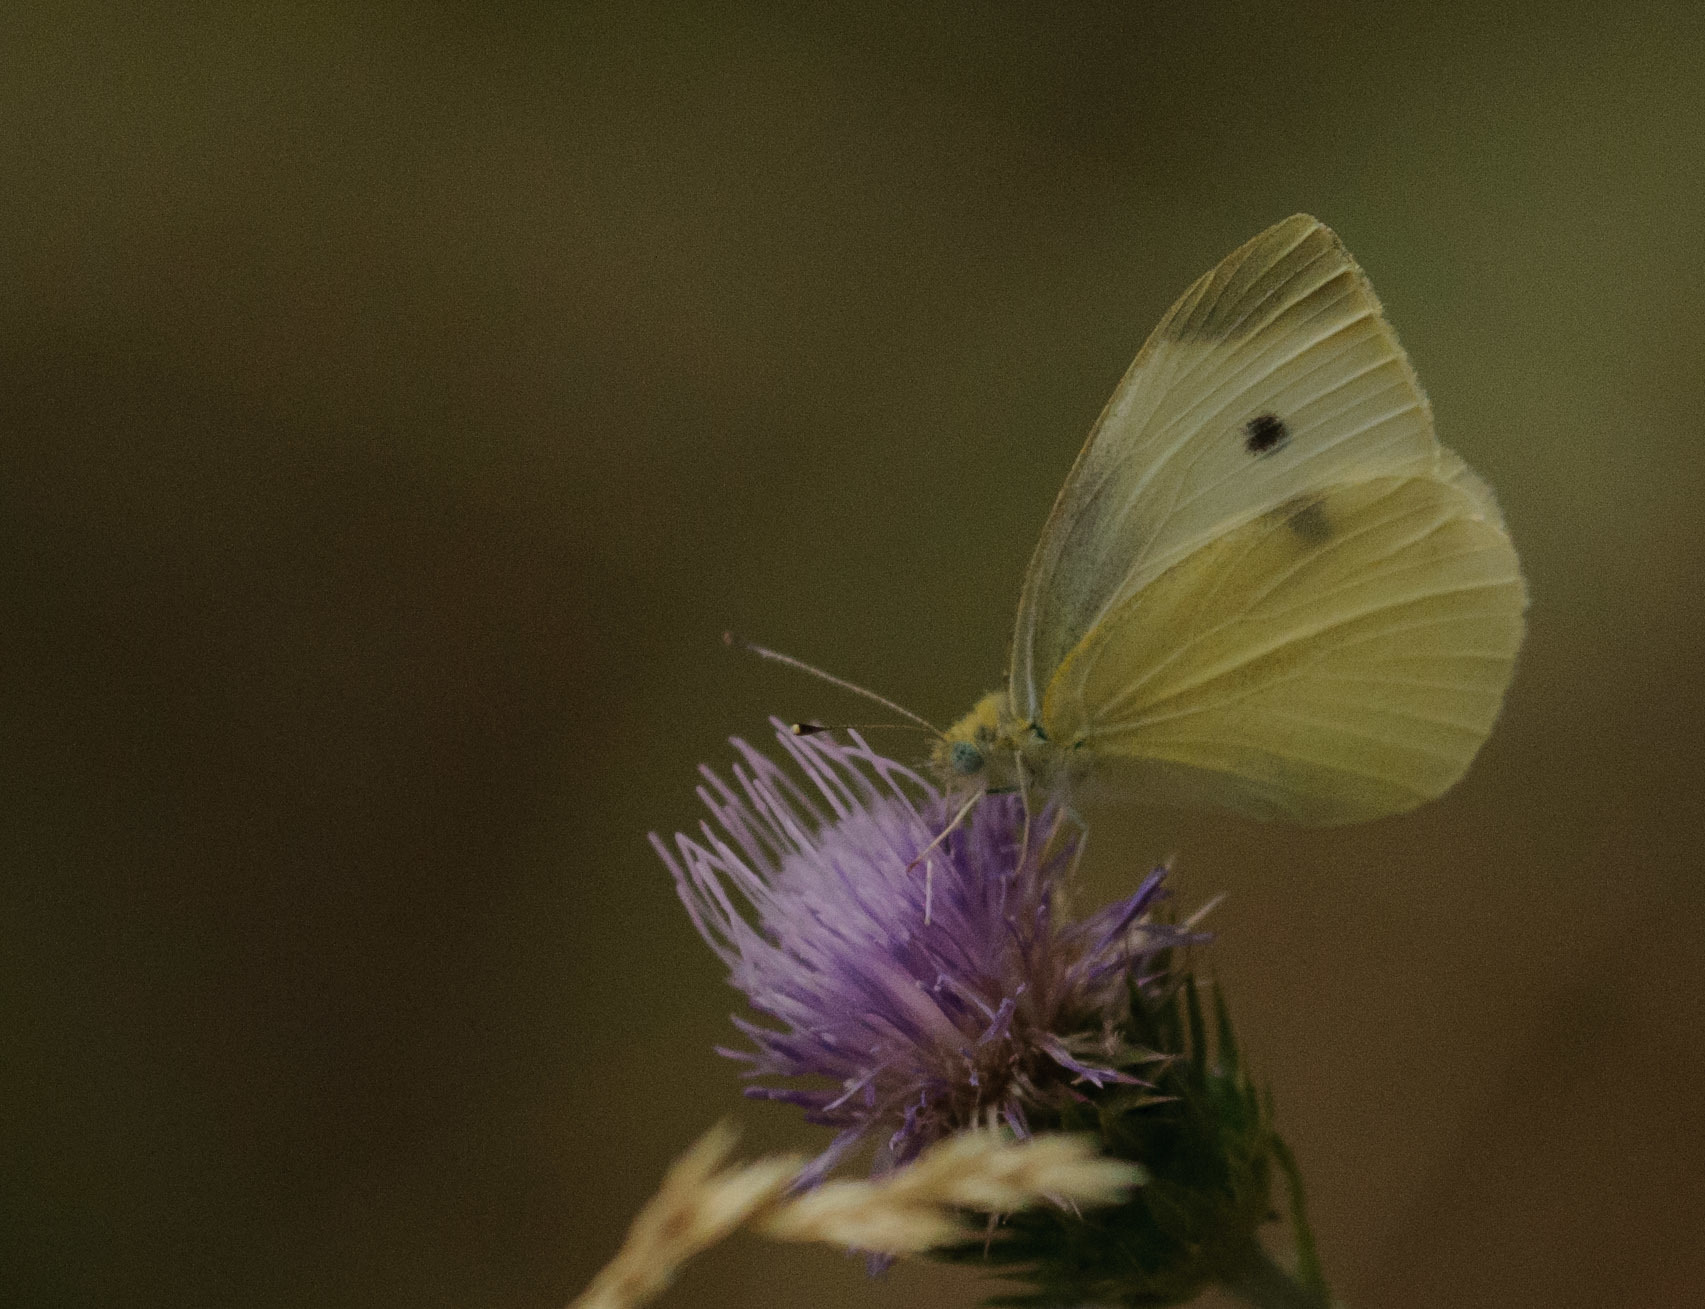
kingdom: Animalia
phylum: Arthropoda
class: Insecta
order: Lepidoptera
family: Pieridae
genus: Pieris
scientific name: Pieris rapae
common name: Small white
